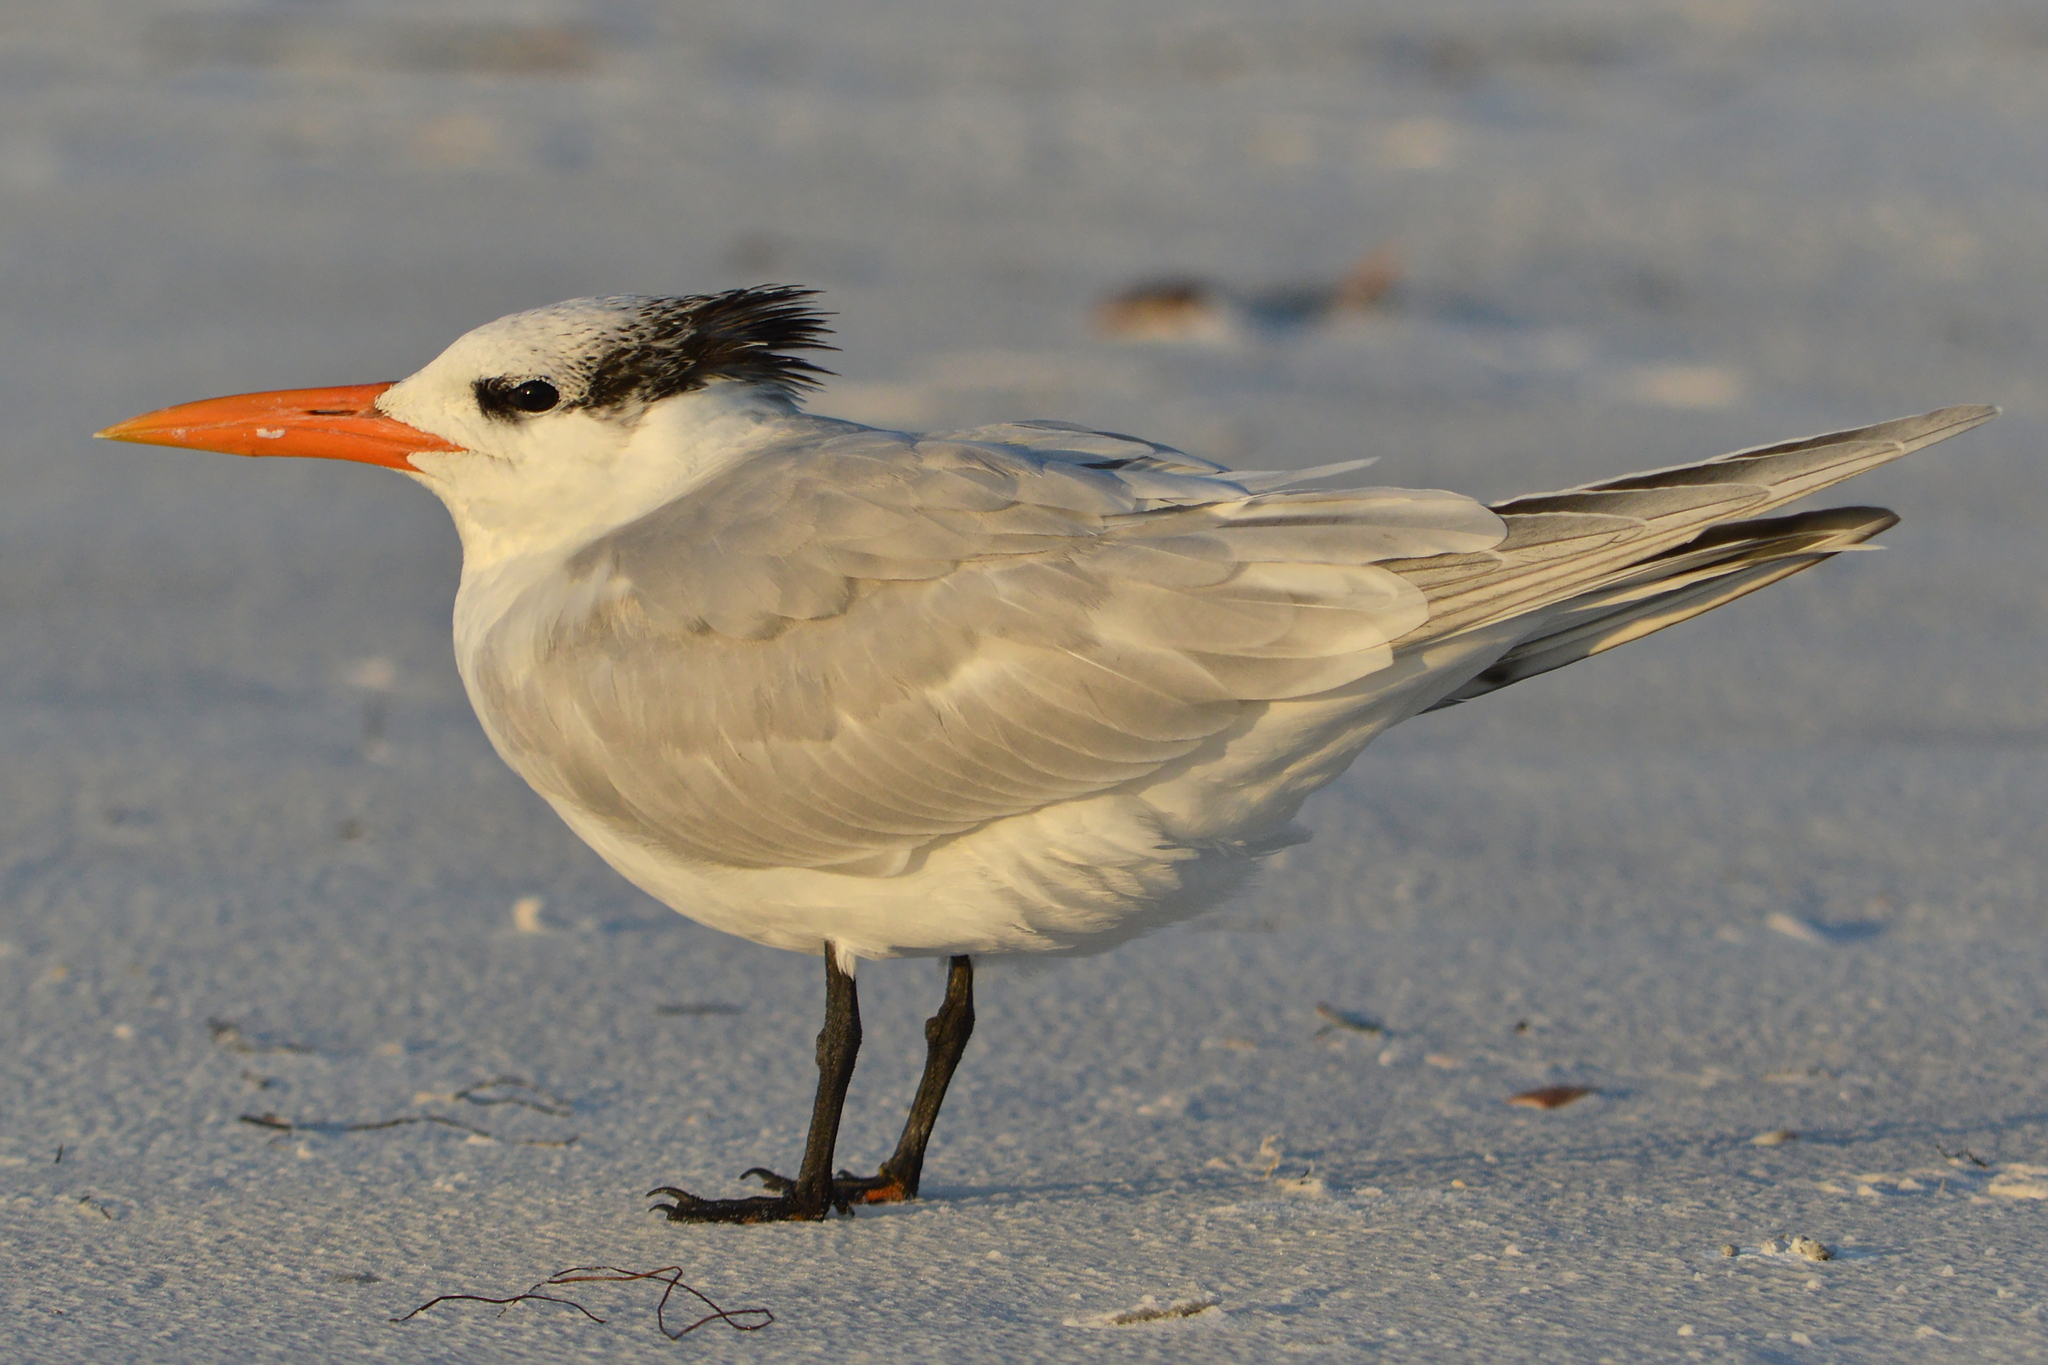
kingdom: Animalia
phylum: Chordata
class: Aves
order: Charadriiformes
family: Laridae
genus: Thalasseus
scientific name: Thalasseus maximus
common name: Royal tern
